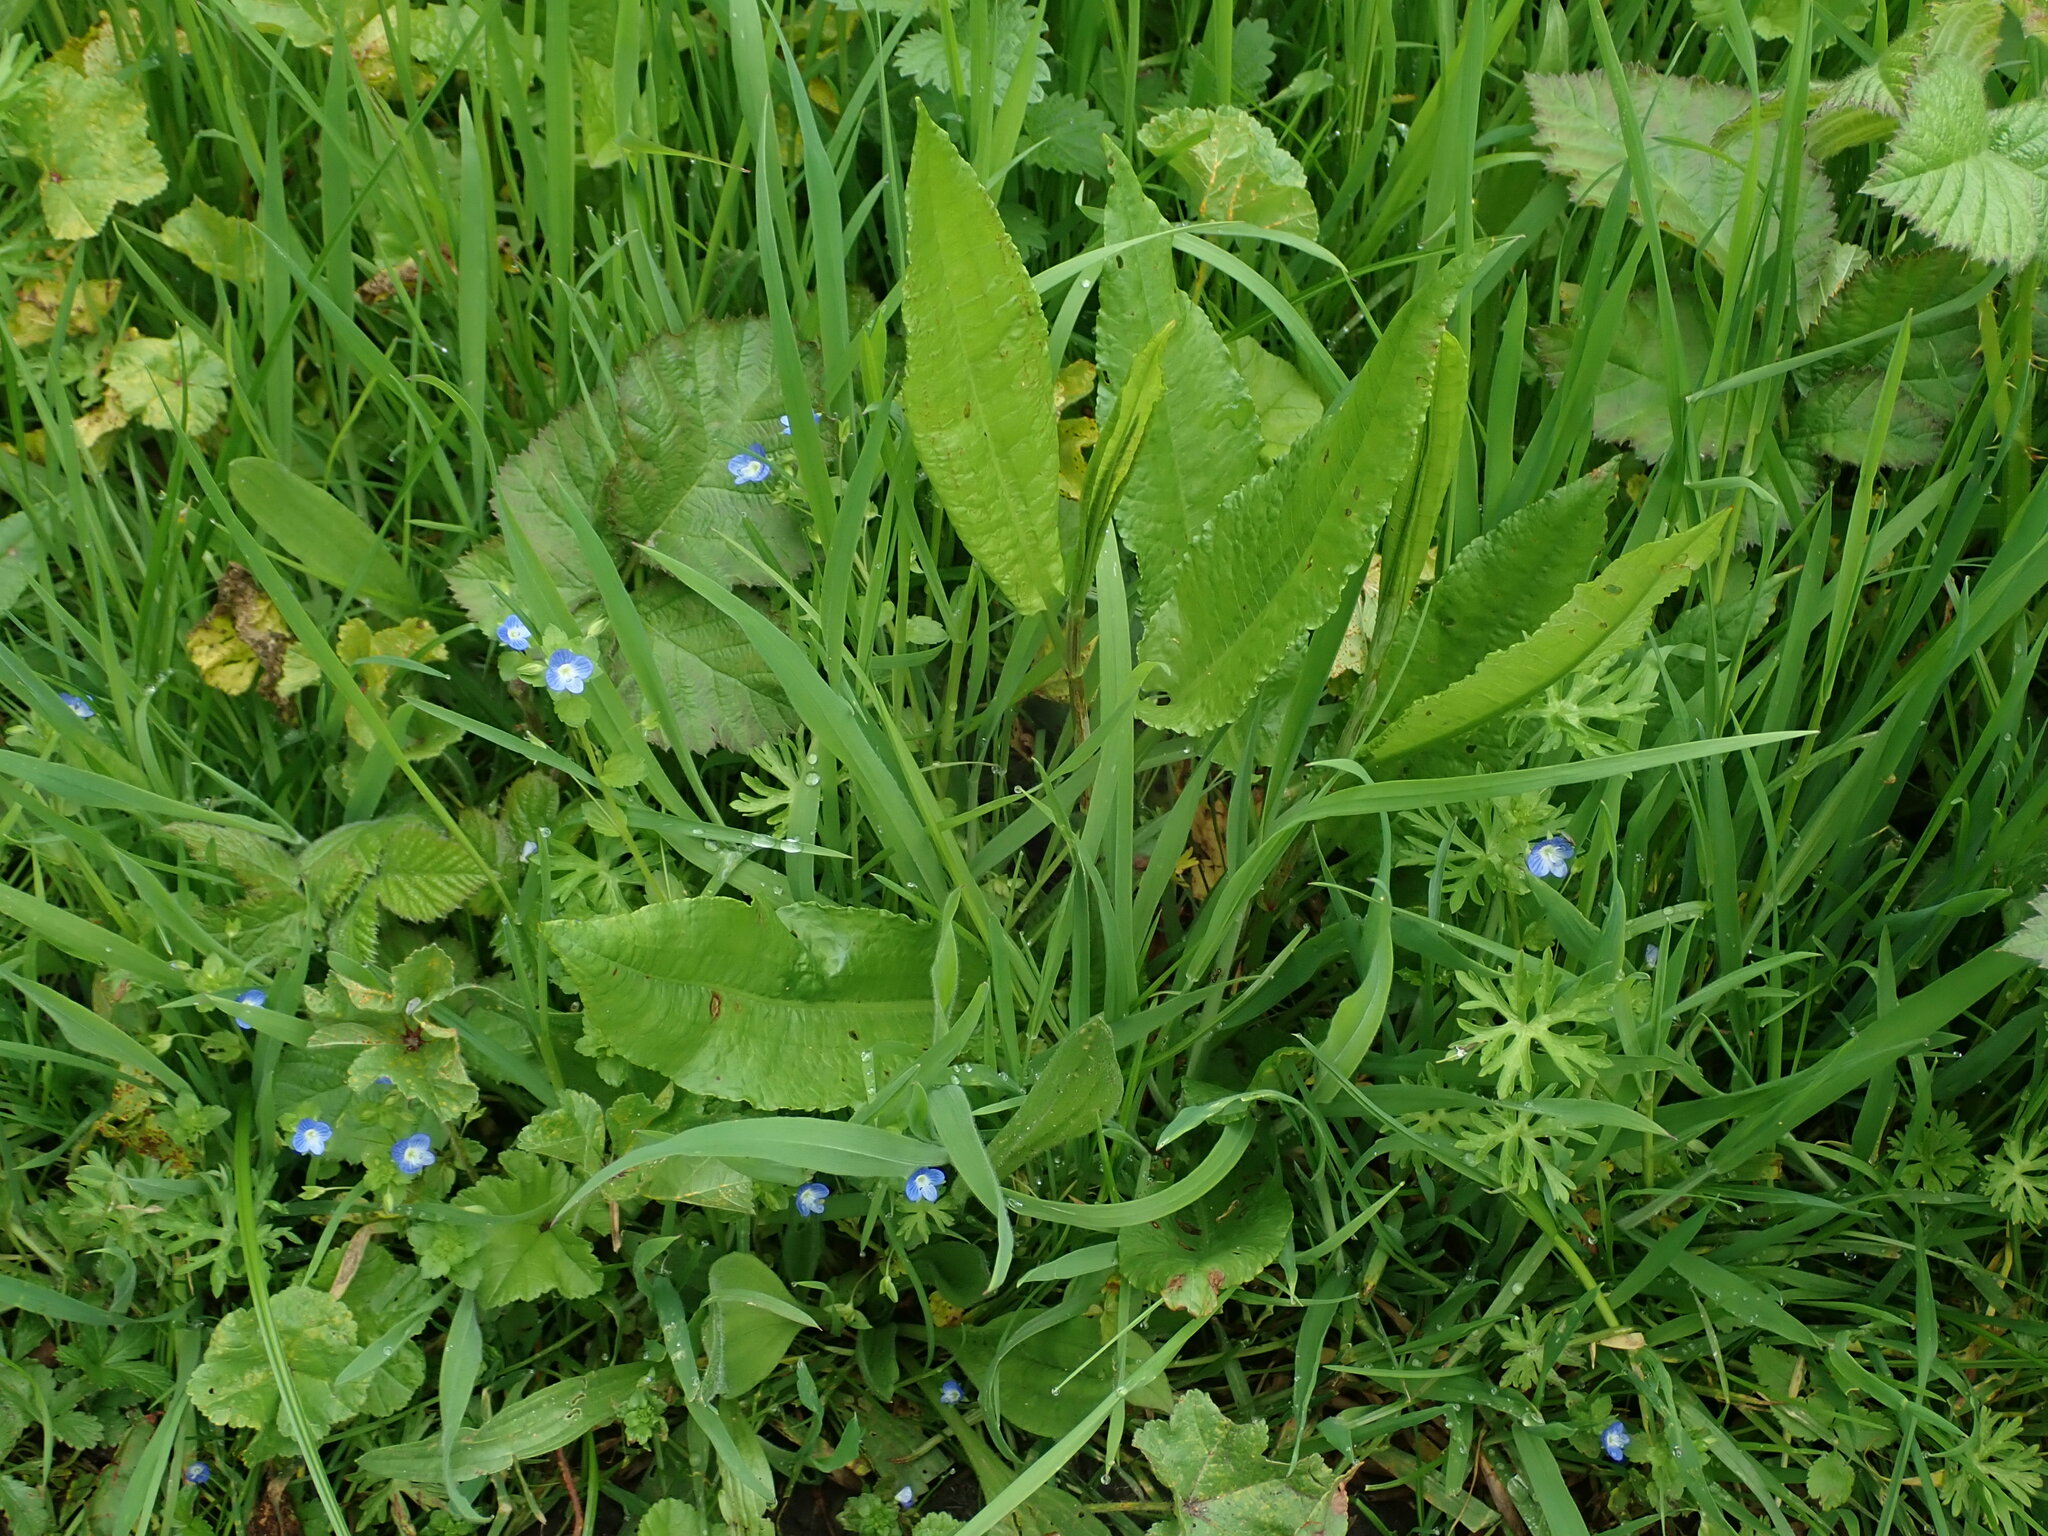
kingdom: Plantae
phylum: Tracheophyta
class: Magnoliopsida
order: Caryophyllales
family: Polygonaceae
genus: Rumex
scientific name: Rumex sanguineus
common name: Wood dock
